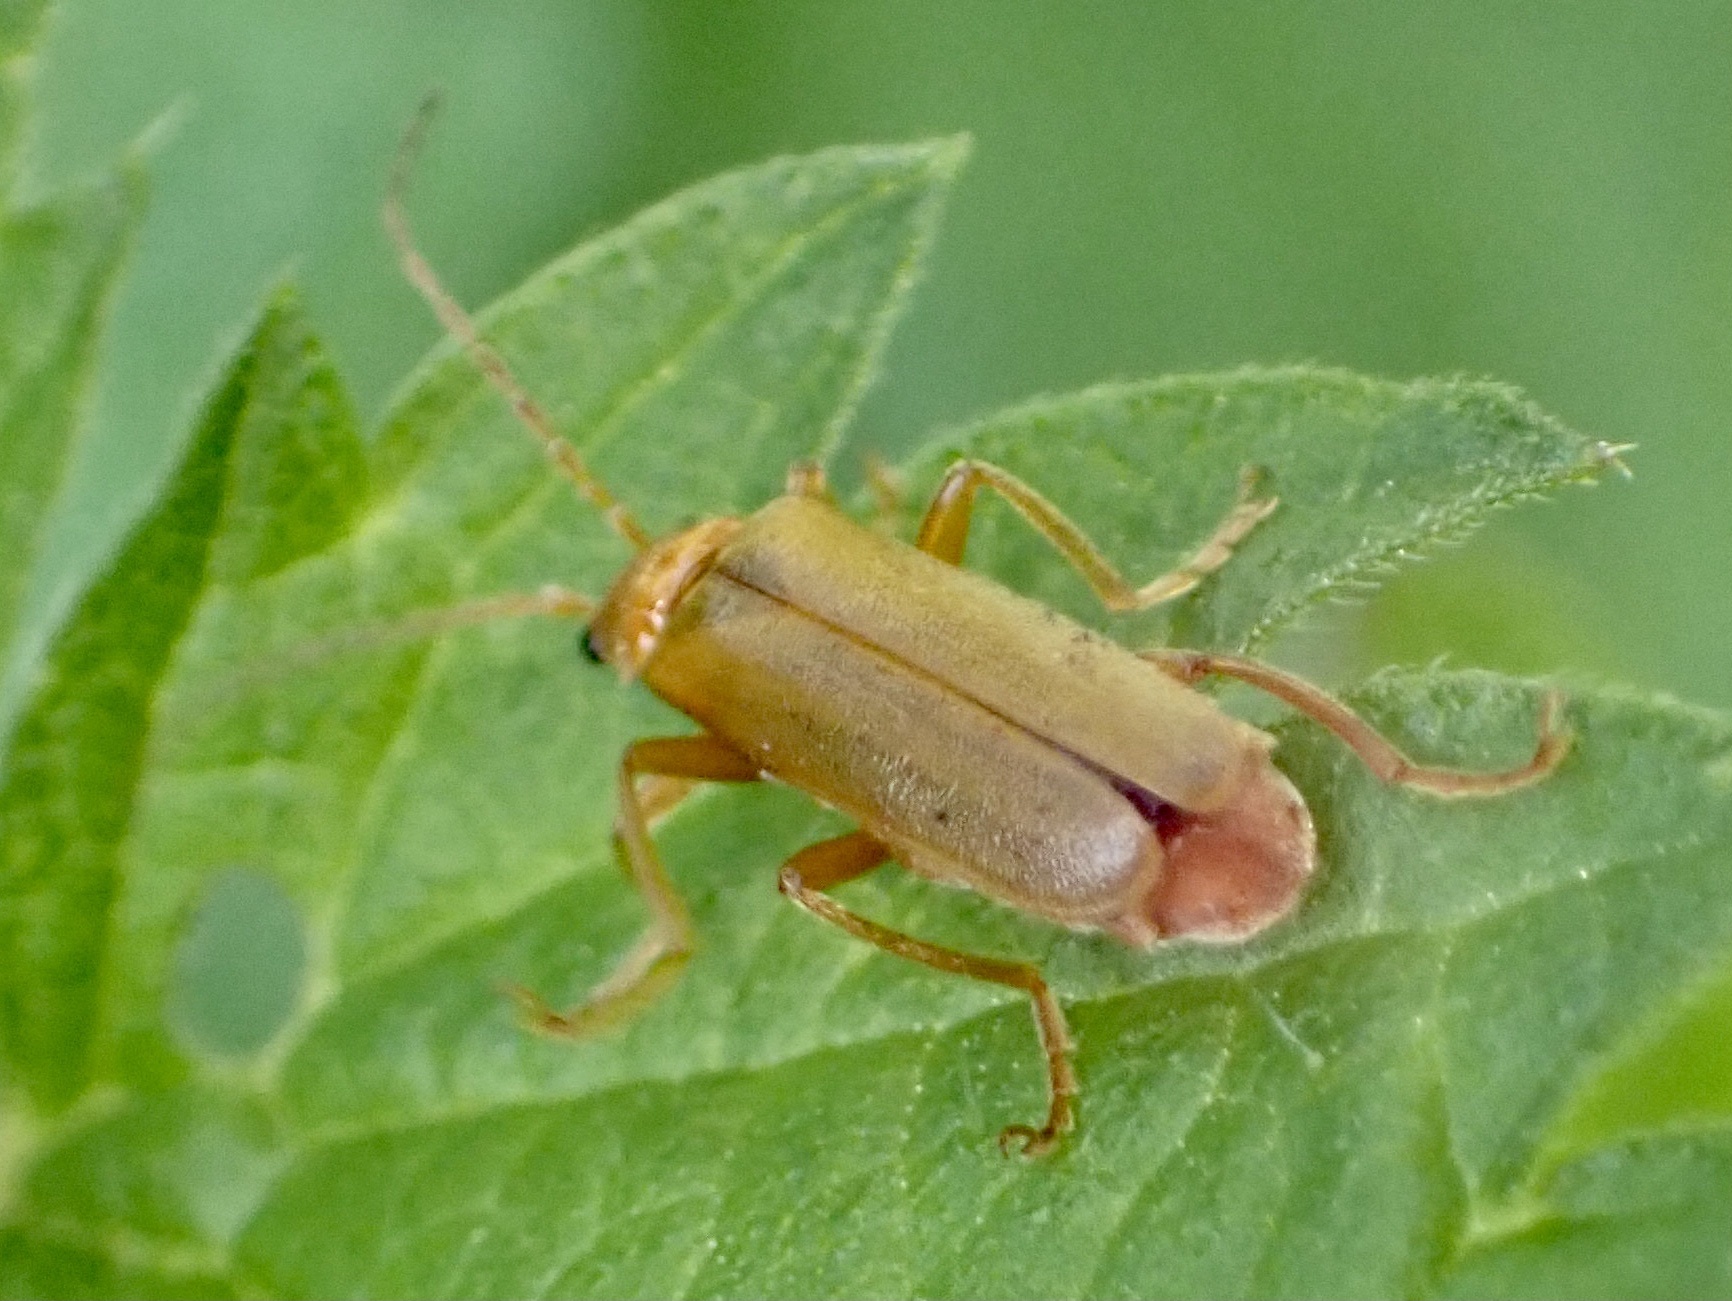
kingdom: Animalia
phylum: Arthropoda
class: Insecta
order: Coleoptera
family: Cantharidae
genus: Cantharis
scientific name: Cantharis rufa
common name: Red-spotted soldier beetle
